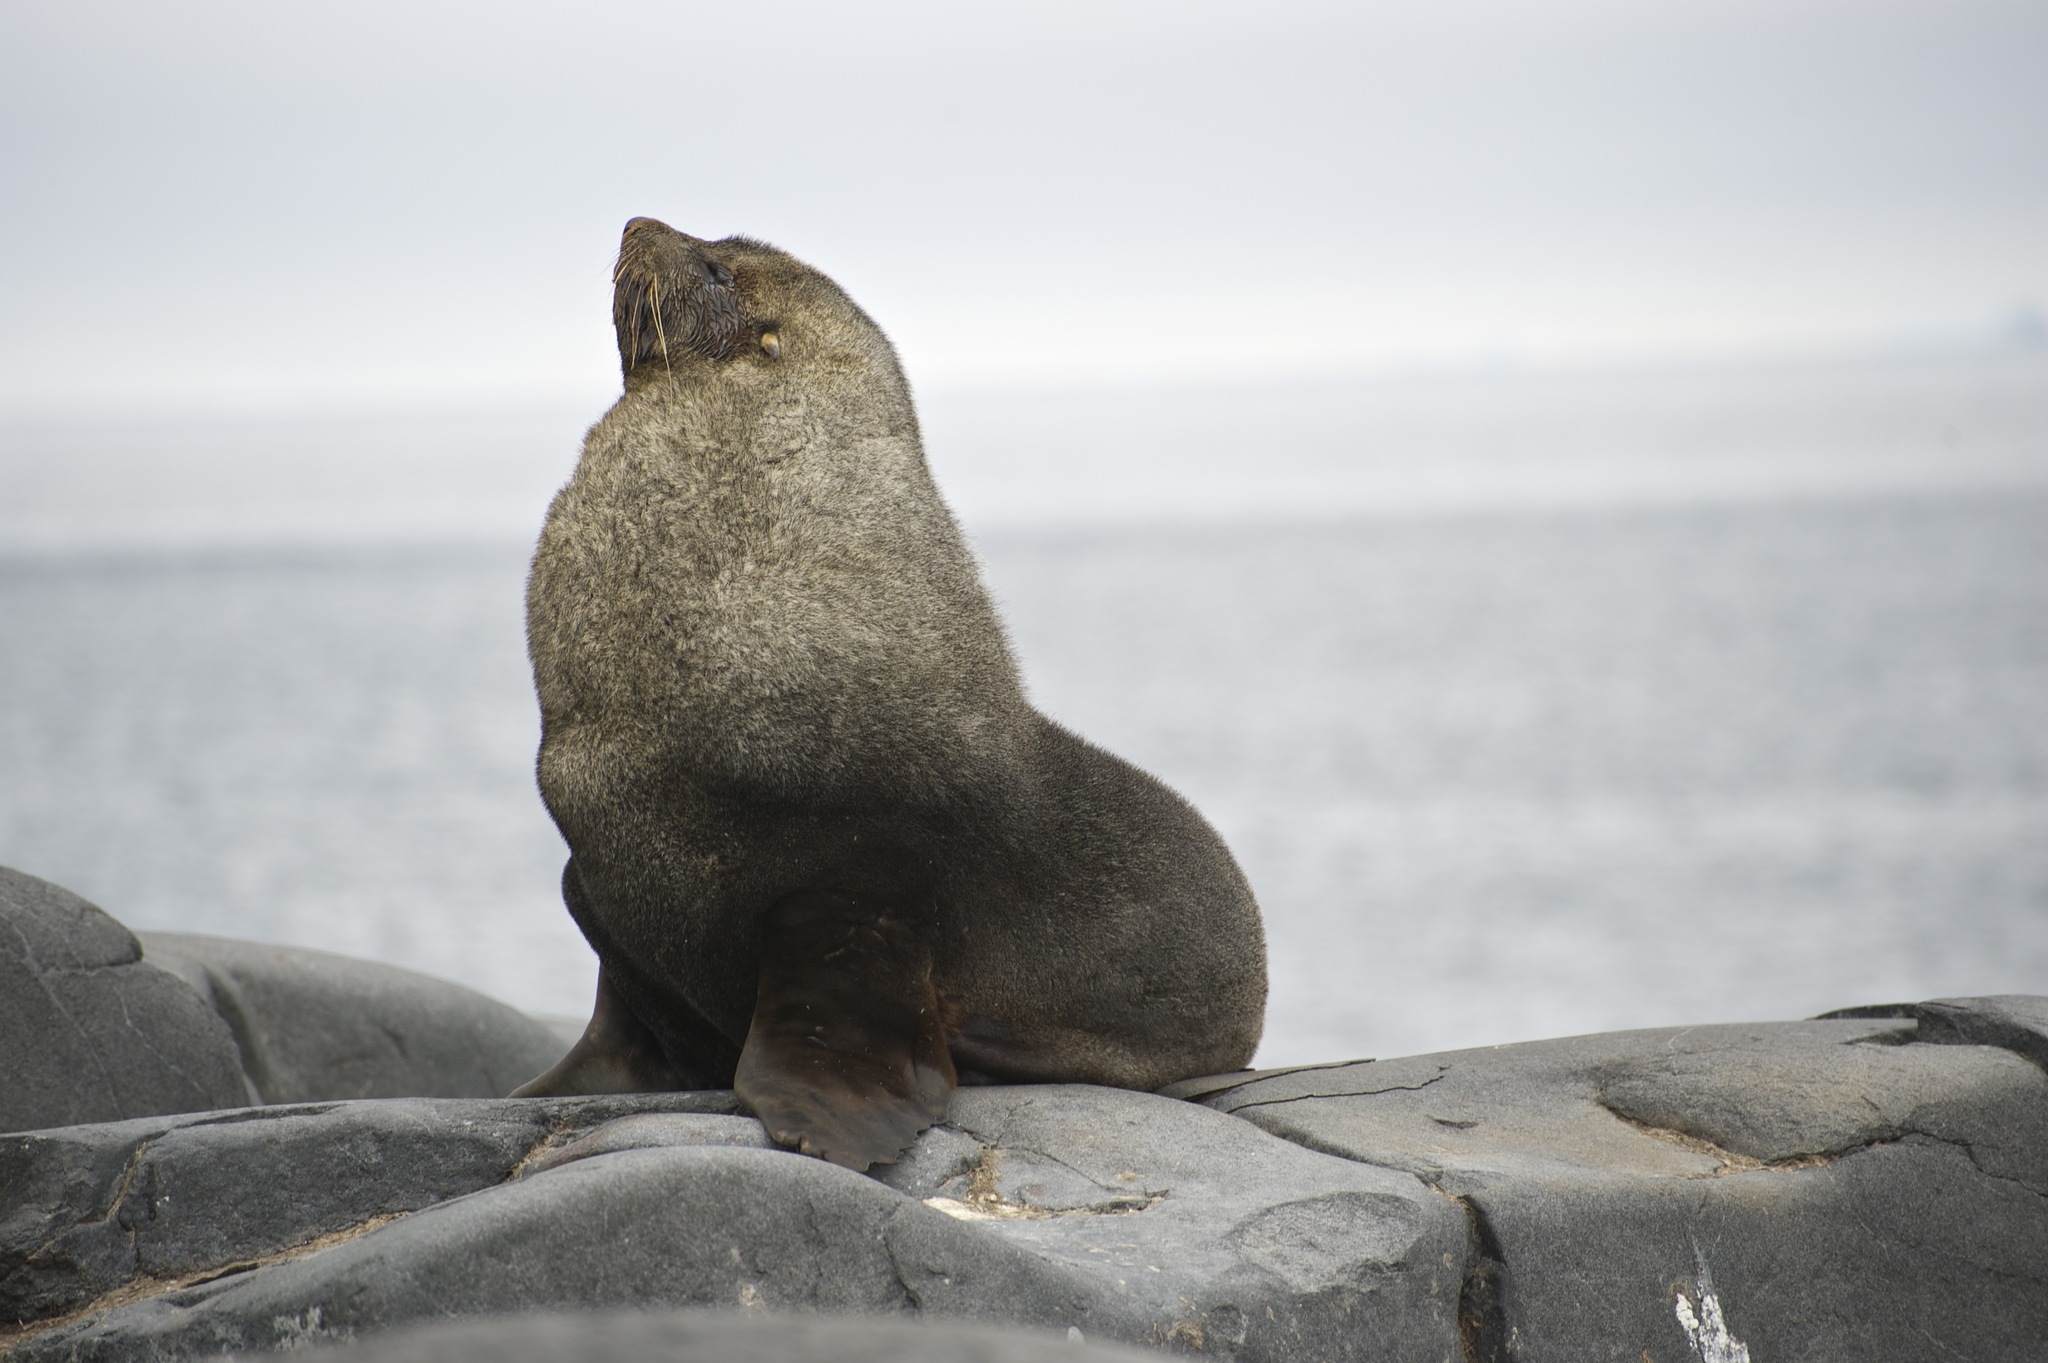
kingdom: Animalia
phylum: Chordata
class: Mammalia
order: Carnivora
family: Otariidae
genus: Arctocephalus
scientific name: Arctocephalus gazella
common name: Antarctic fur seal
